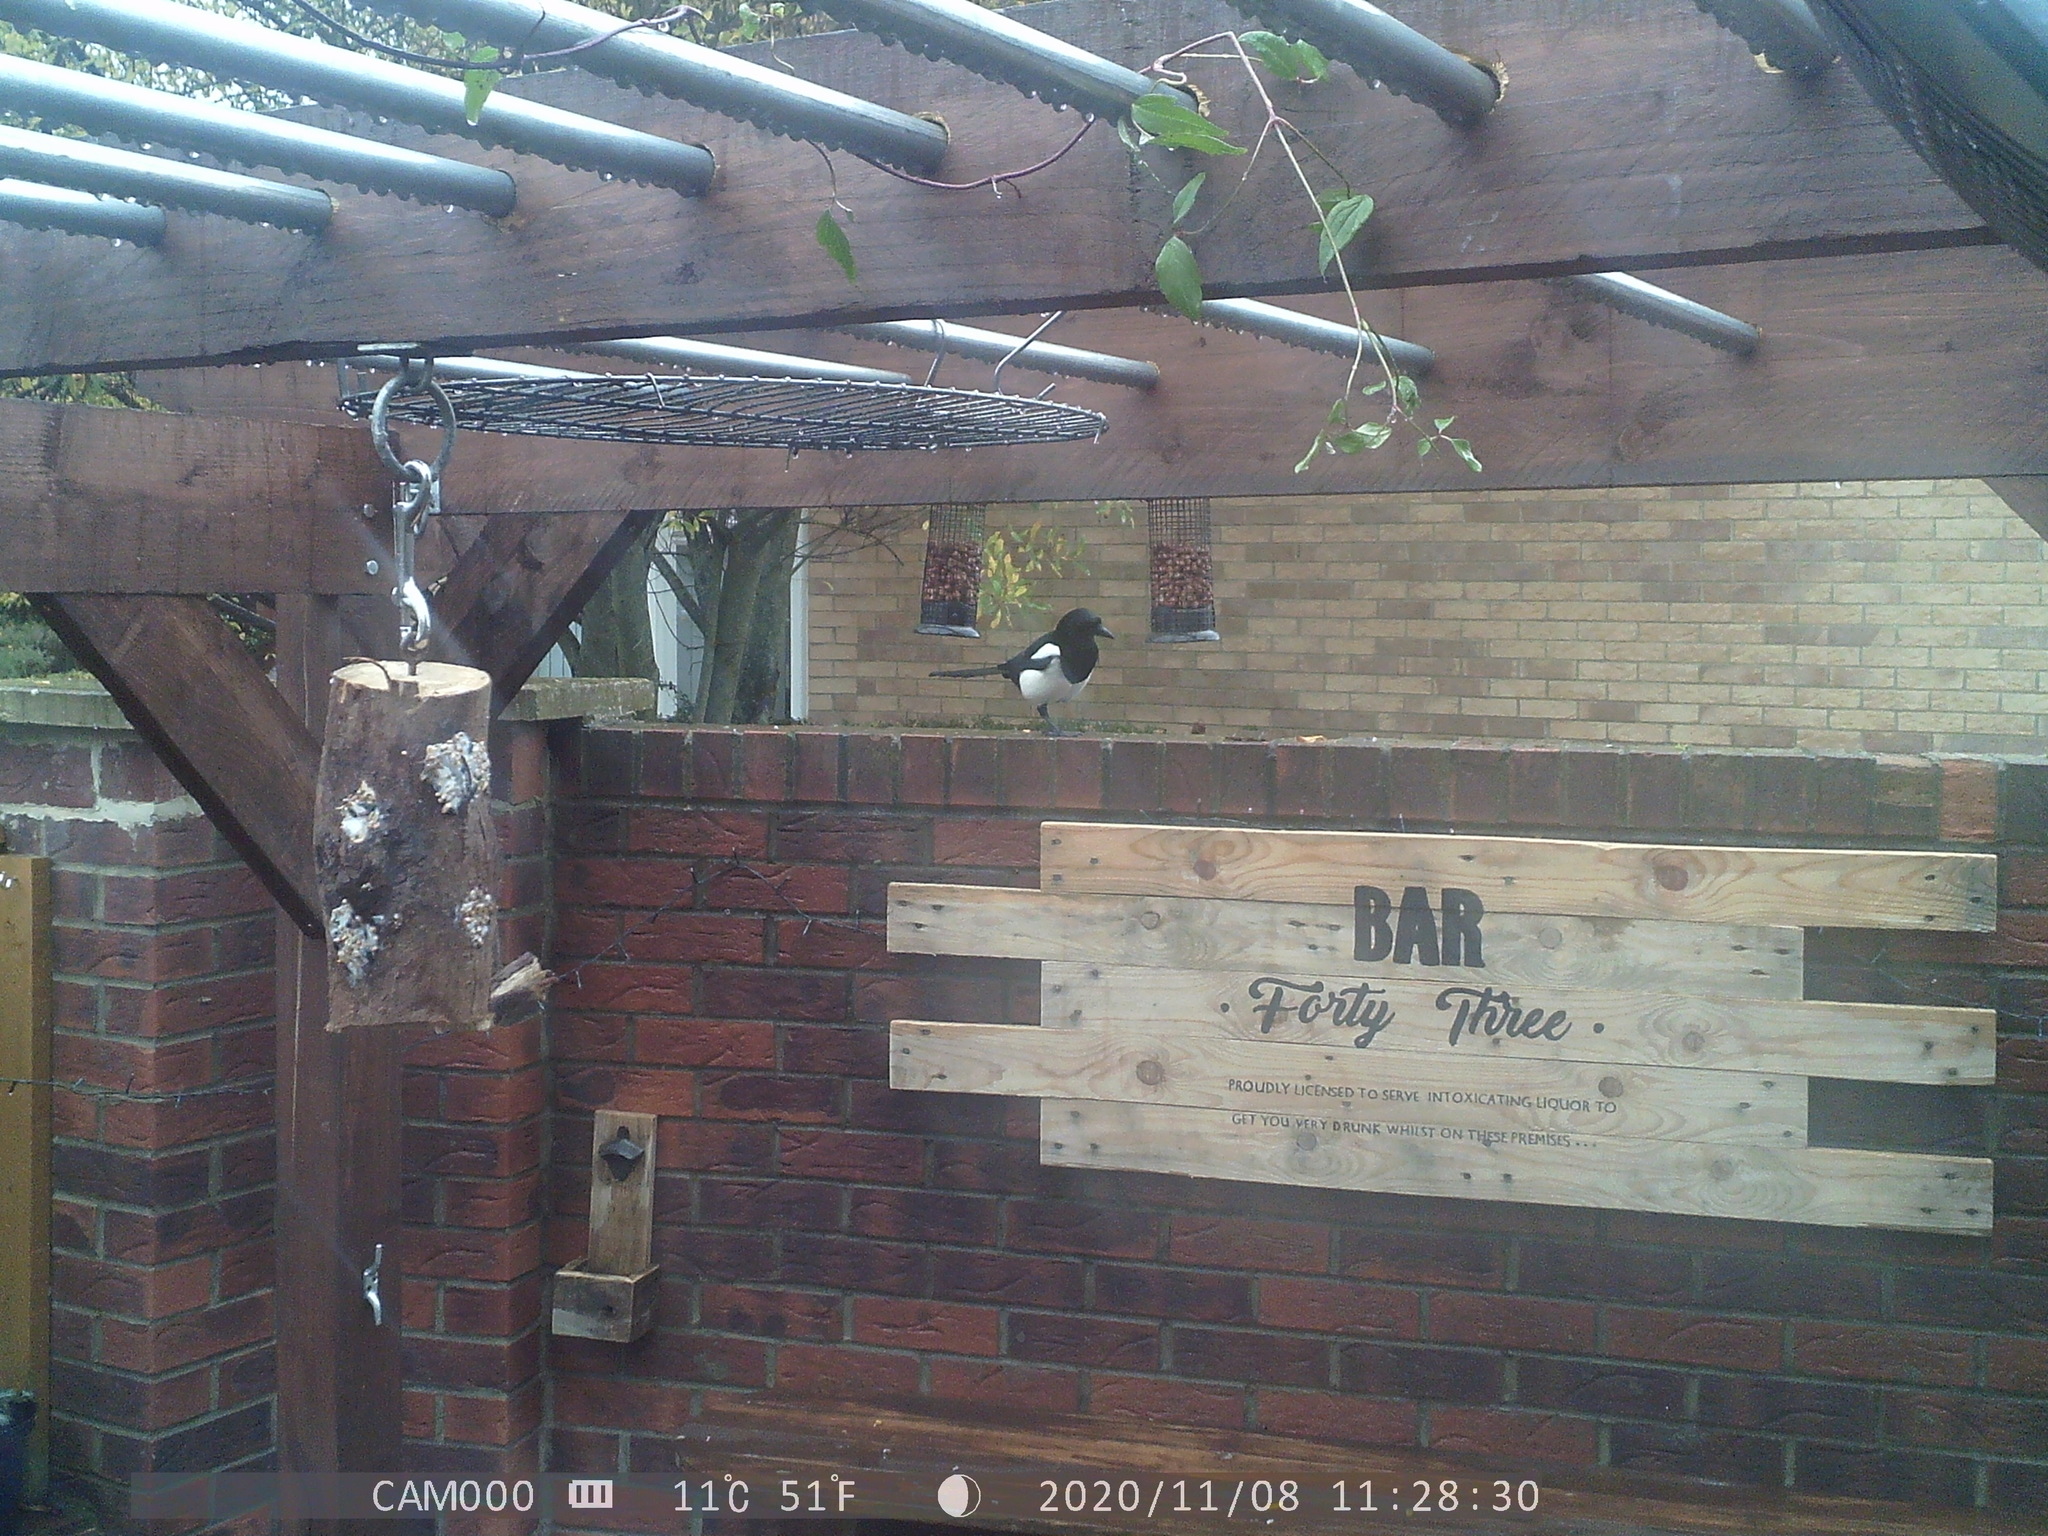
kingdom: Animalia
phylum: Chordata
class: Aves
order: Passeriformes
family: Corvidae
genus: Pica
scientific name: Pica pica
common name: Eurasian magpie
